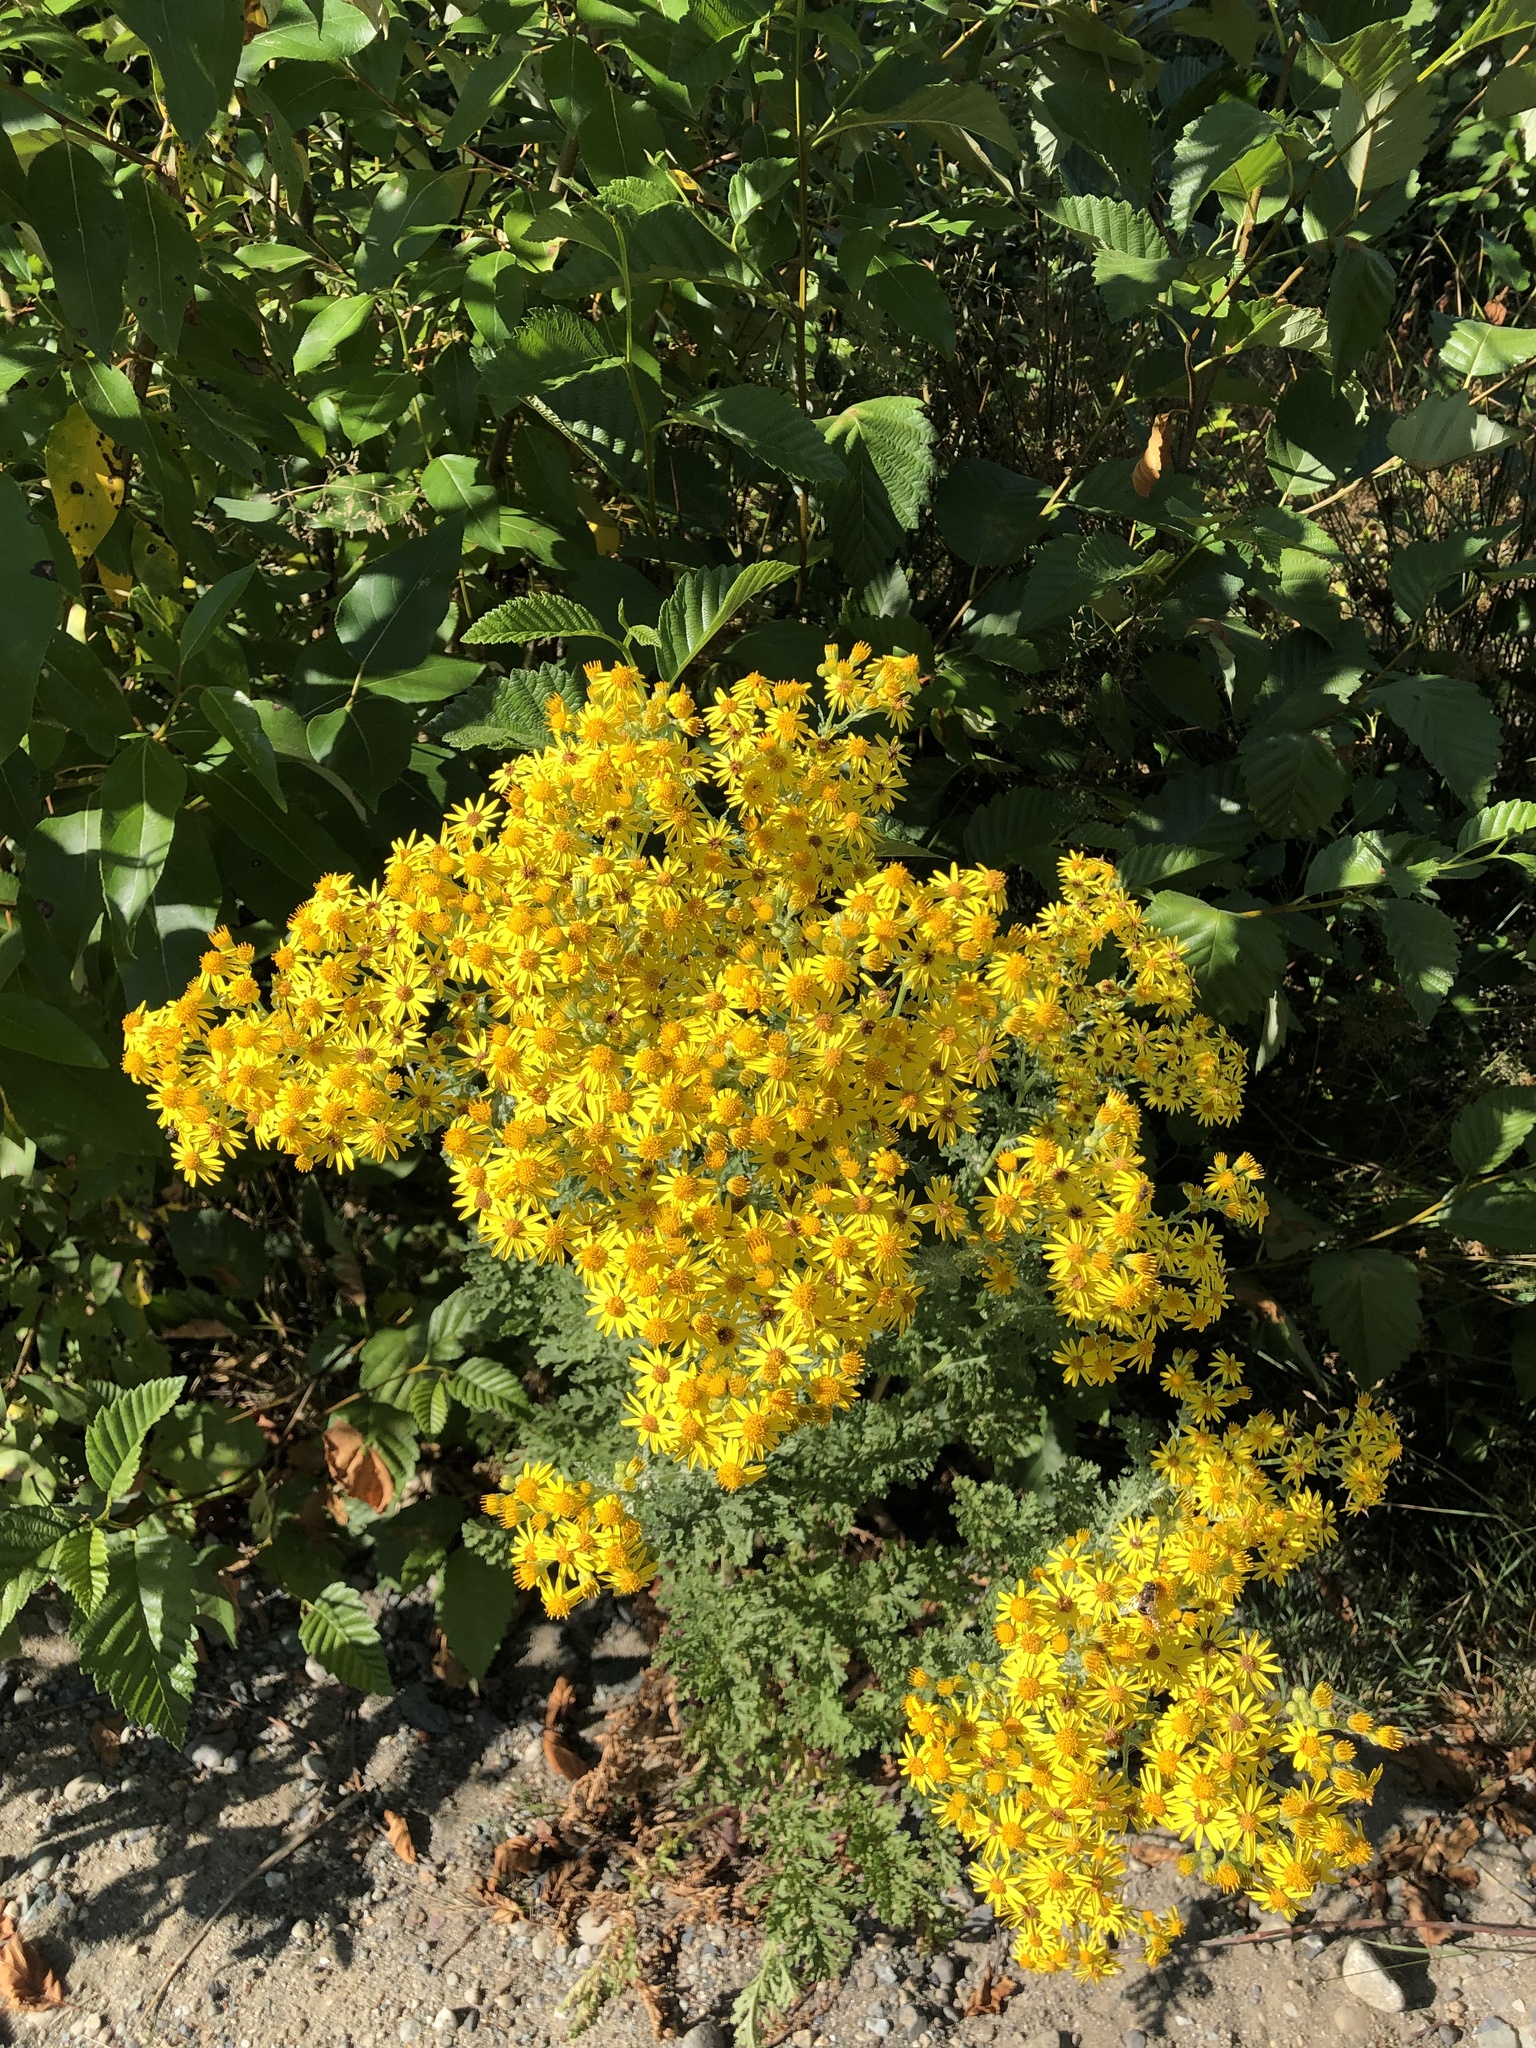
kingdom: Plantae
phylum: Tracheophyta
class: Magnoliopsida
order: Asterales
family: Asteraceae
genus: Jacobaea
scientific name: Jacobaea vulgaris
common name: Stinking willie
